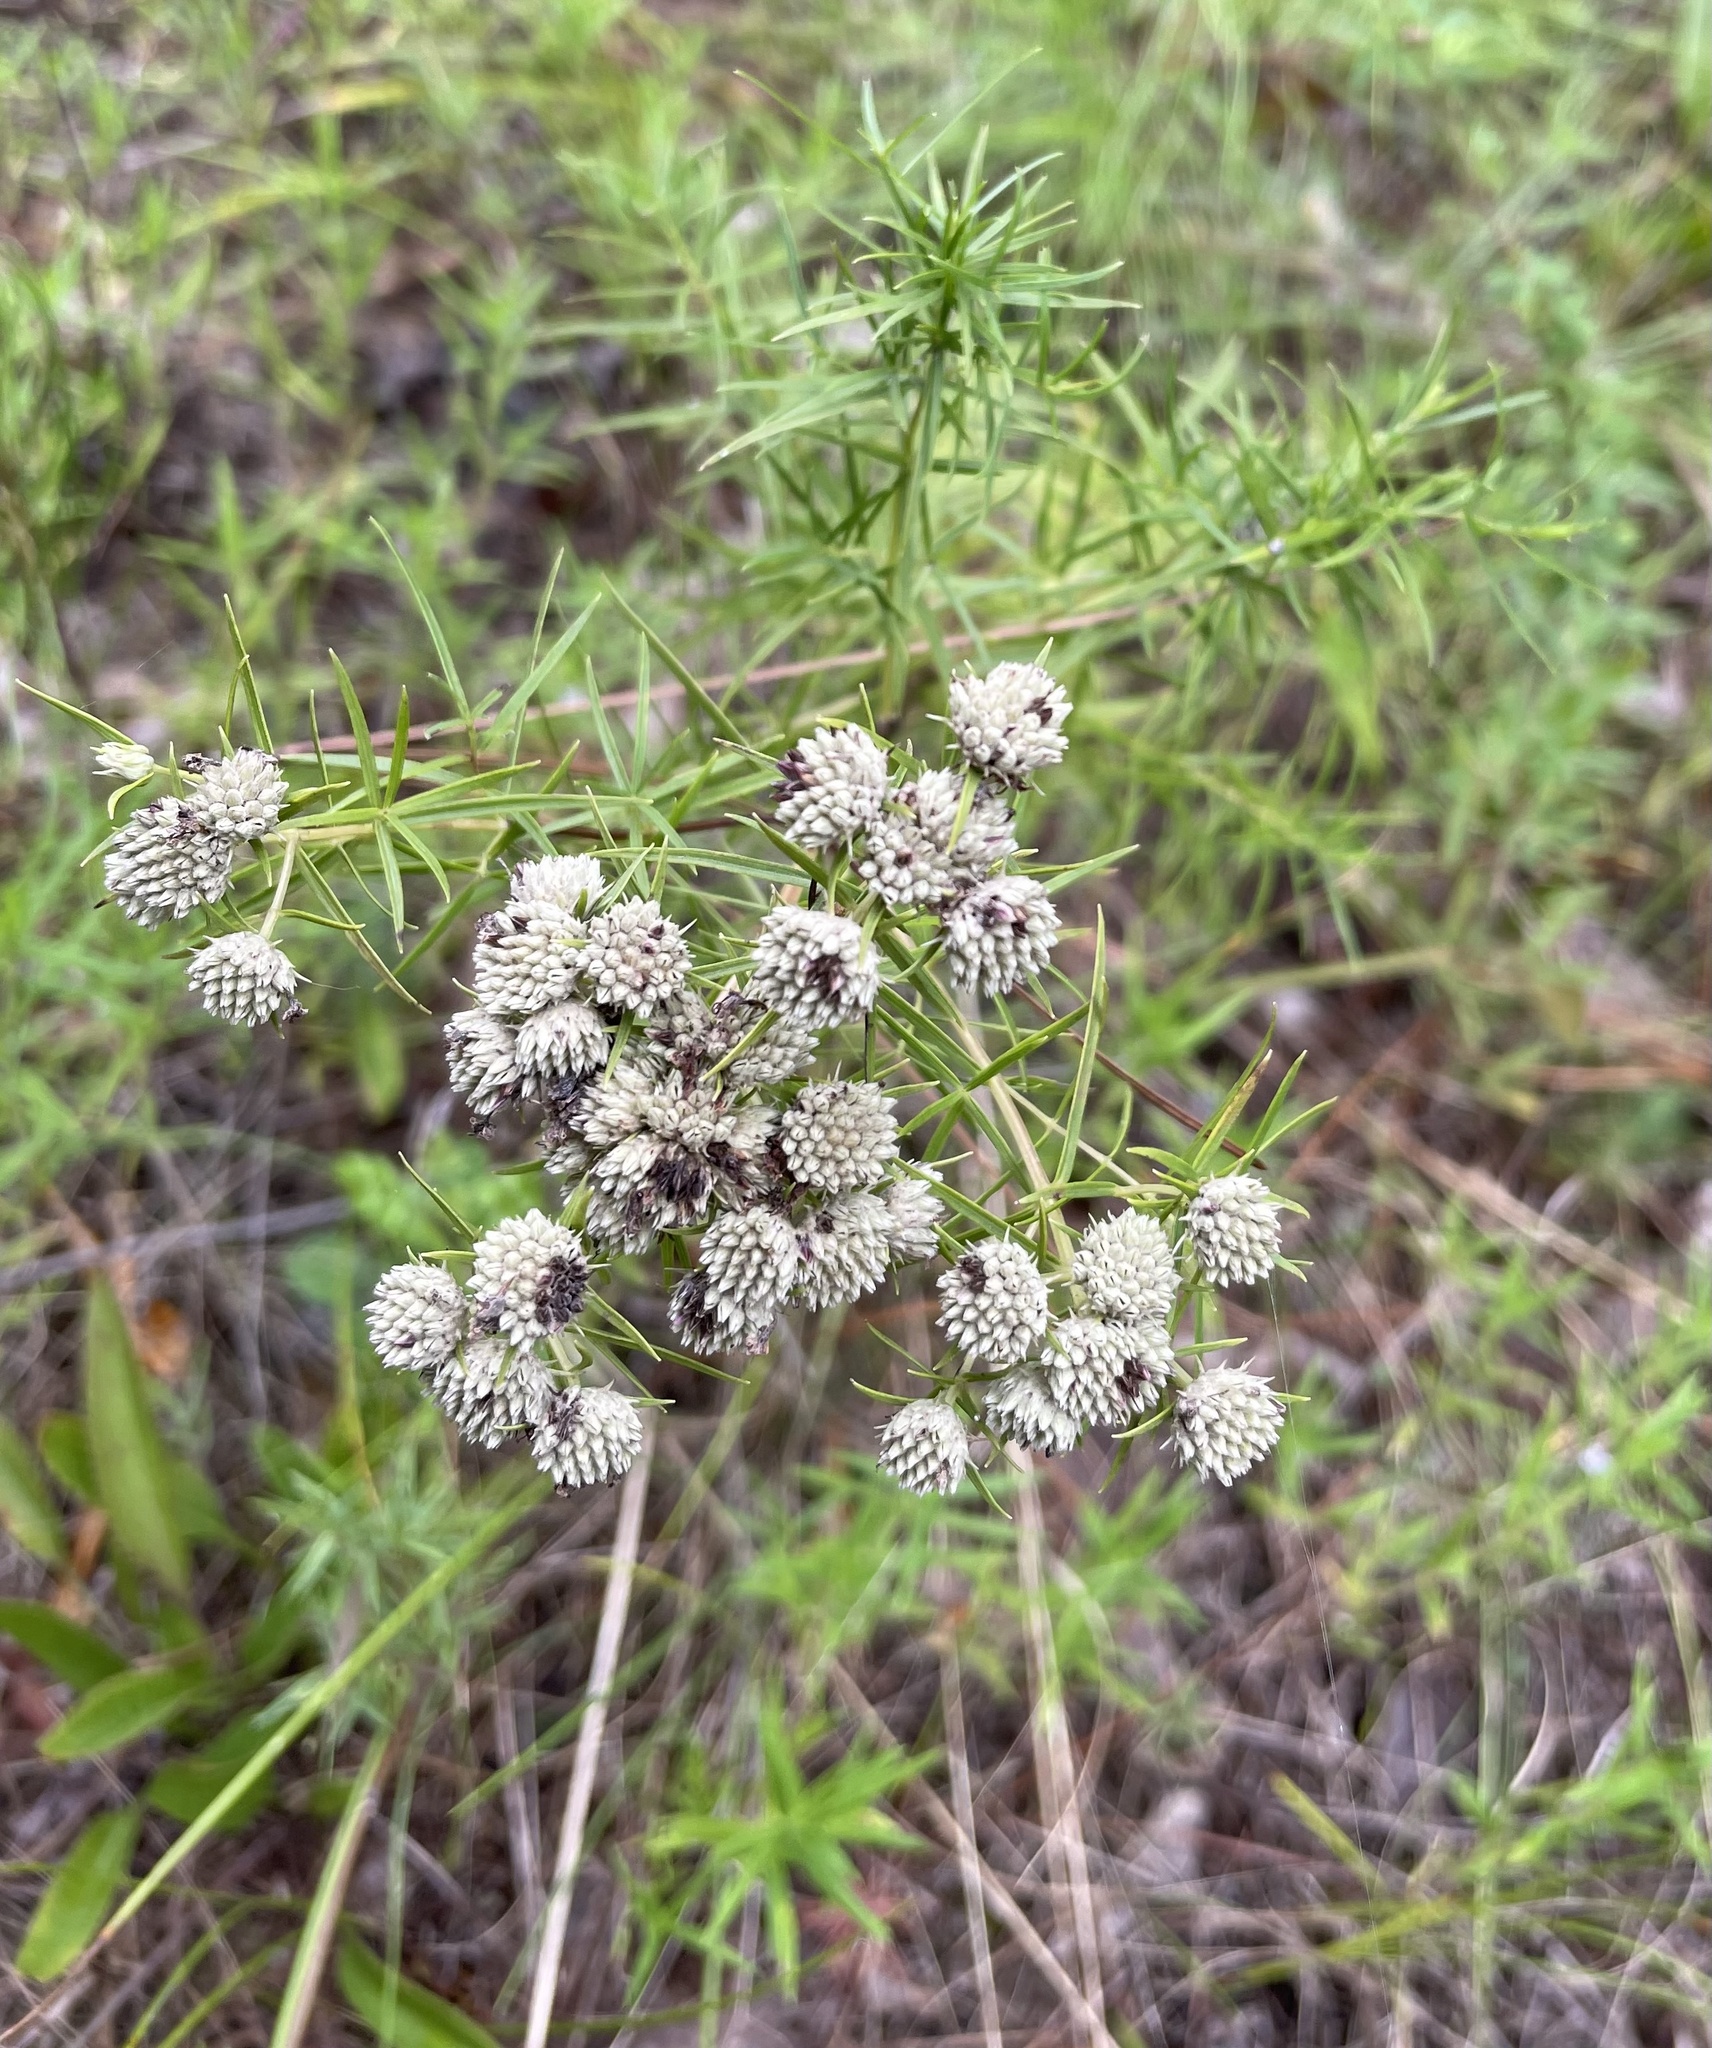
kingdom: Plantae
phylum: Tracheophyta
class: Magnoliopsida
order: Lamiales
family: Lamiaceae
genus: Pycnanthemum
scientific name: Pycnanthemum tenuifolium
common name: Narrow-leaf mountain-mint
